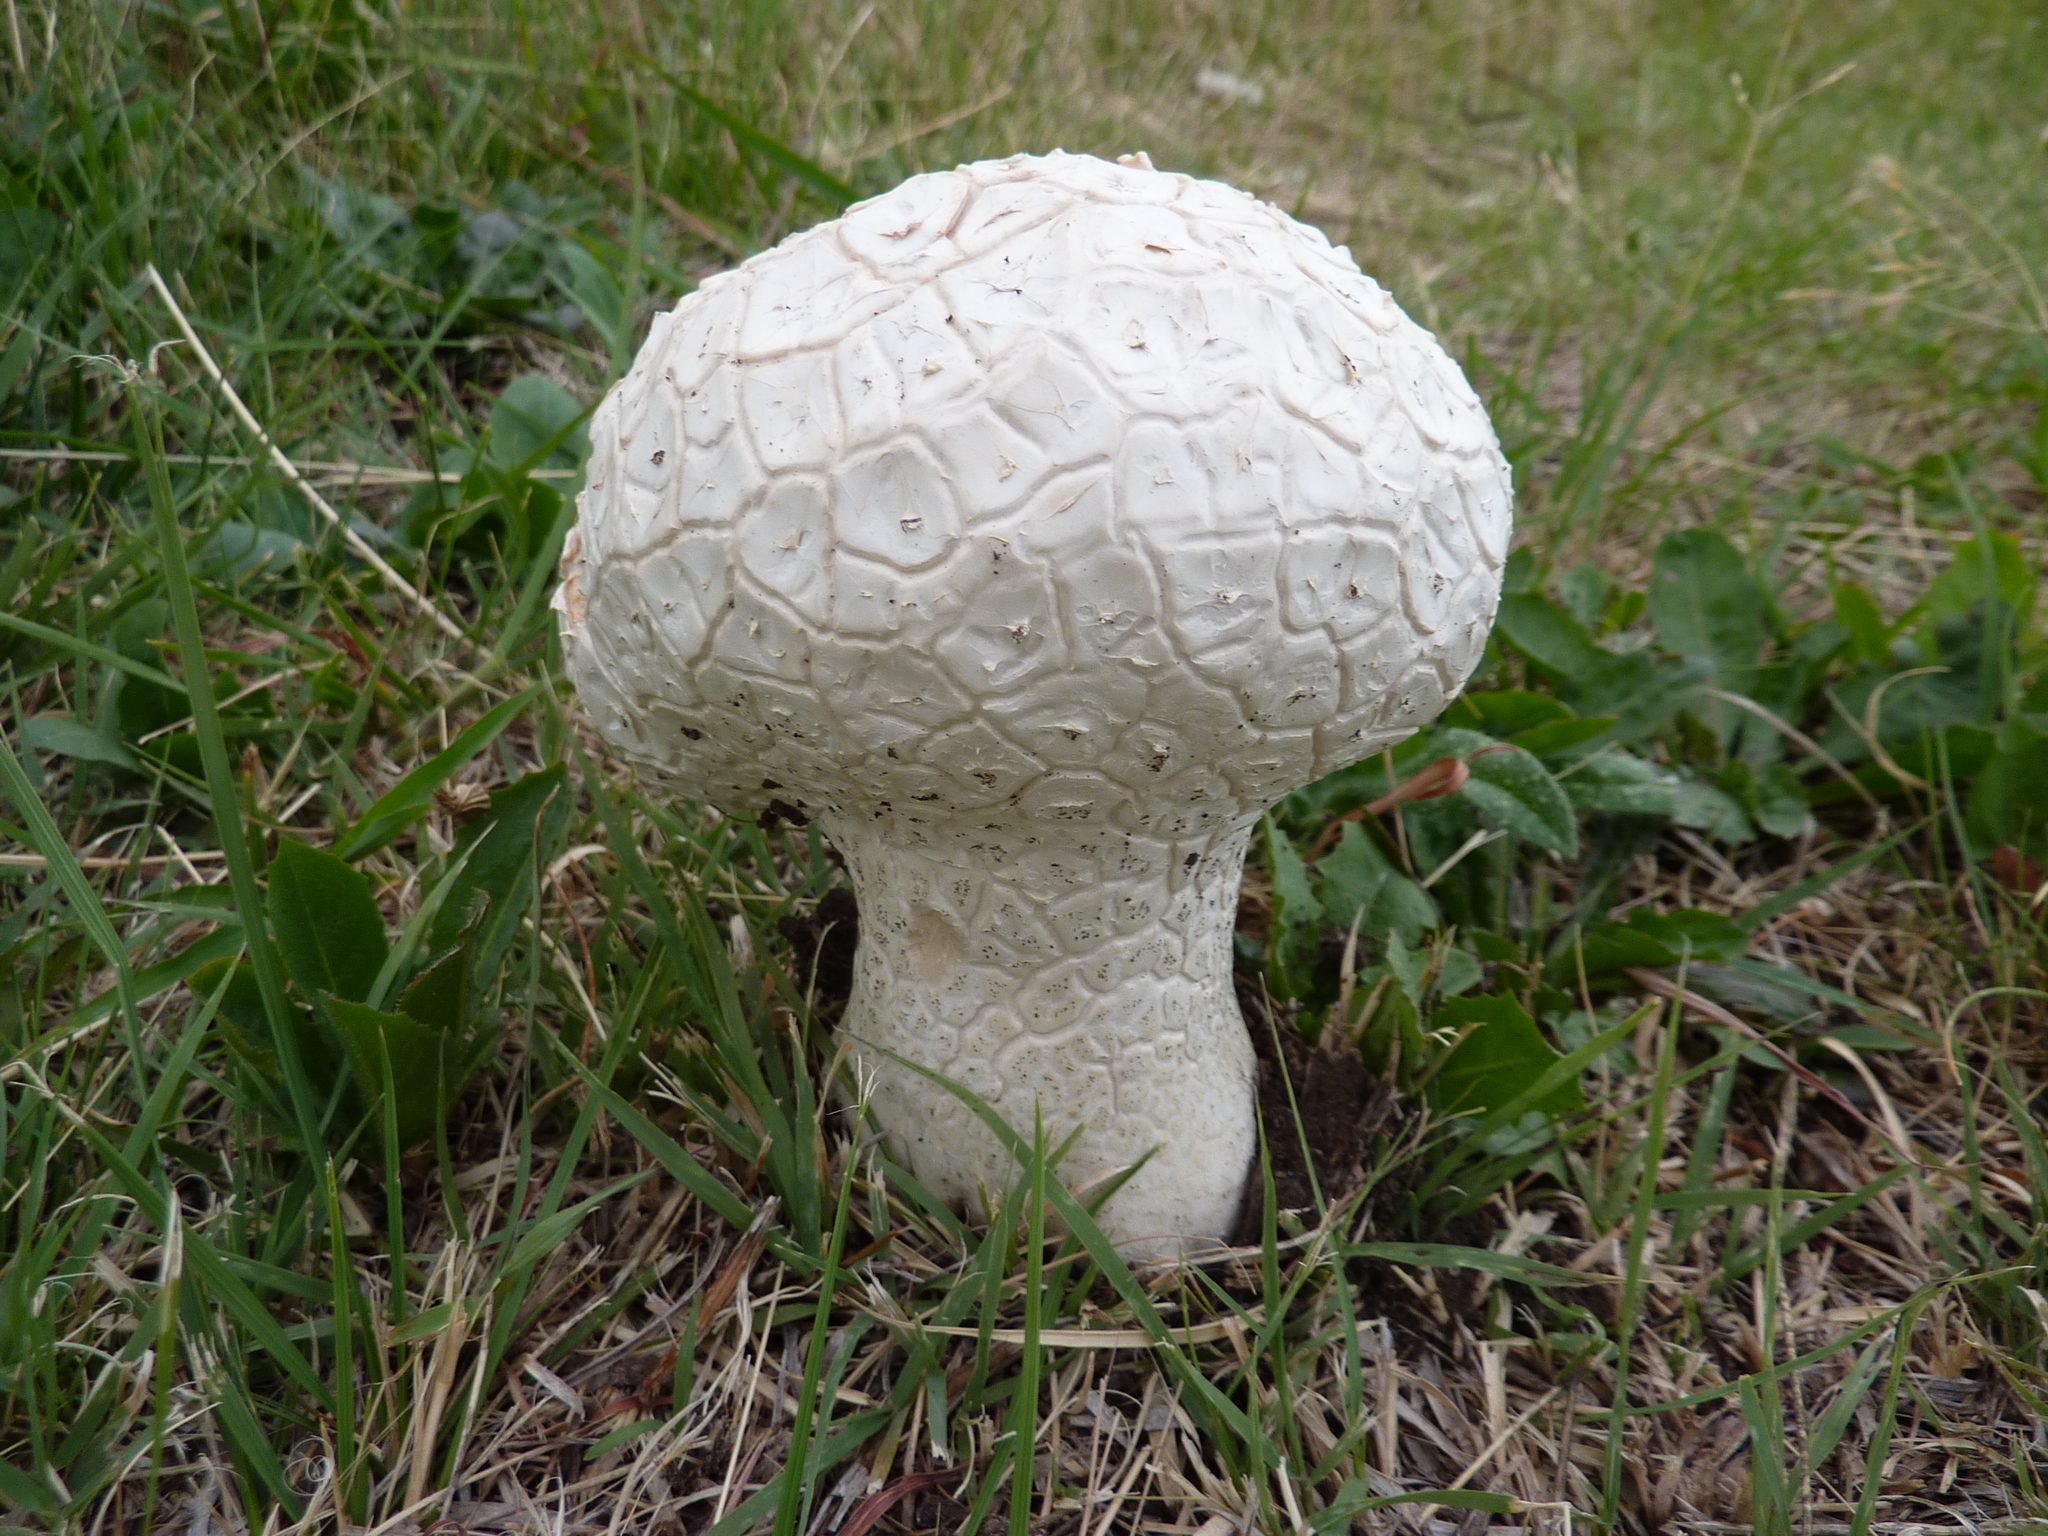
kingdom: Fungi
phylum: Basidiomycota
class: Agaricomycetes
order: Agaricales
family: Lycoperdaceae
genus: Calvatia
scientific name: Calvatia cyathiformis
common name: Purple-spored puffball
